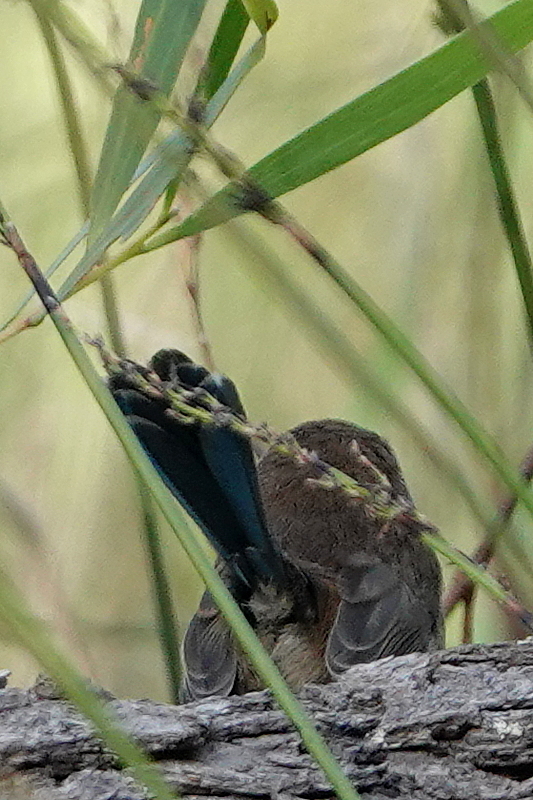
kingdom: Animalia
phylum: Chordata
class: Aves
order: Passeriformes
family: Maluridae
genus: Malurus
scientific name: Malurus cyaneus
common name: Superb fairywren
